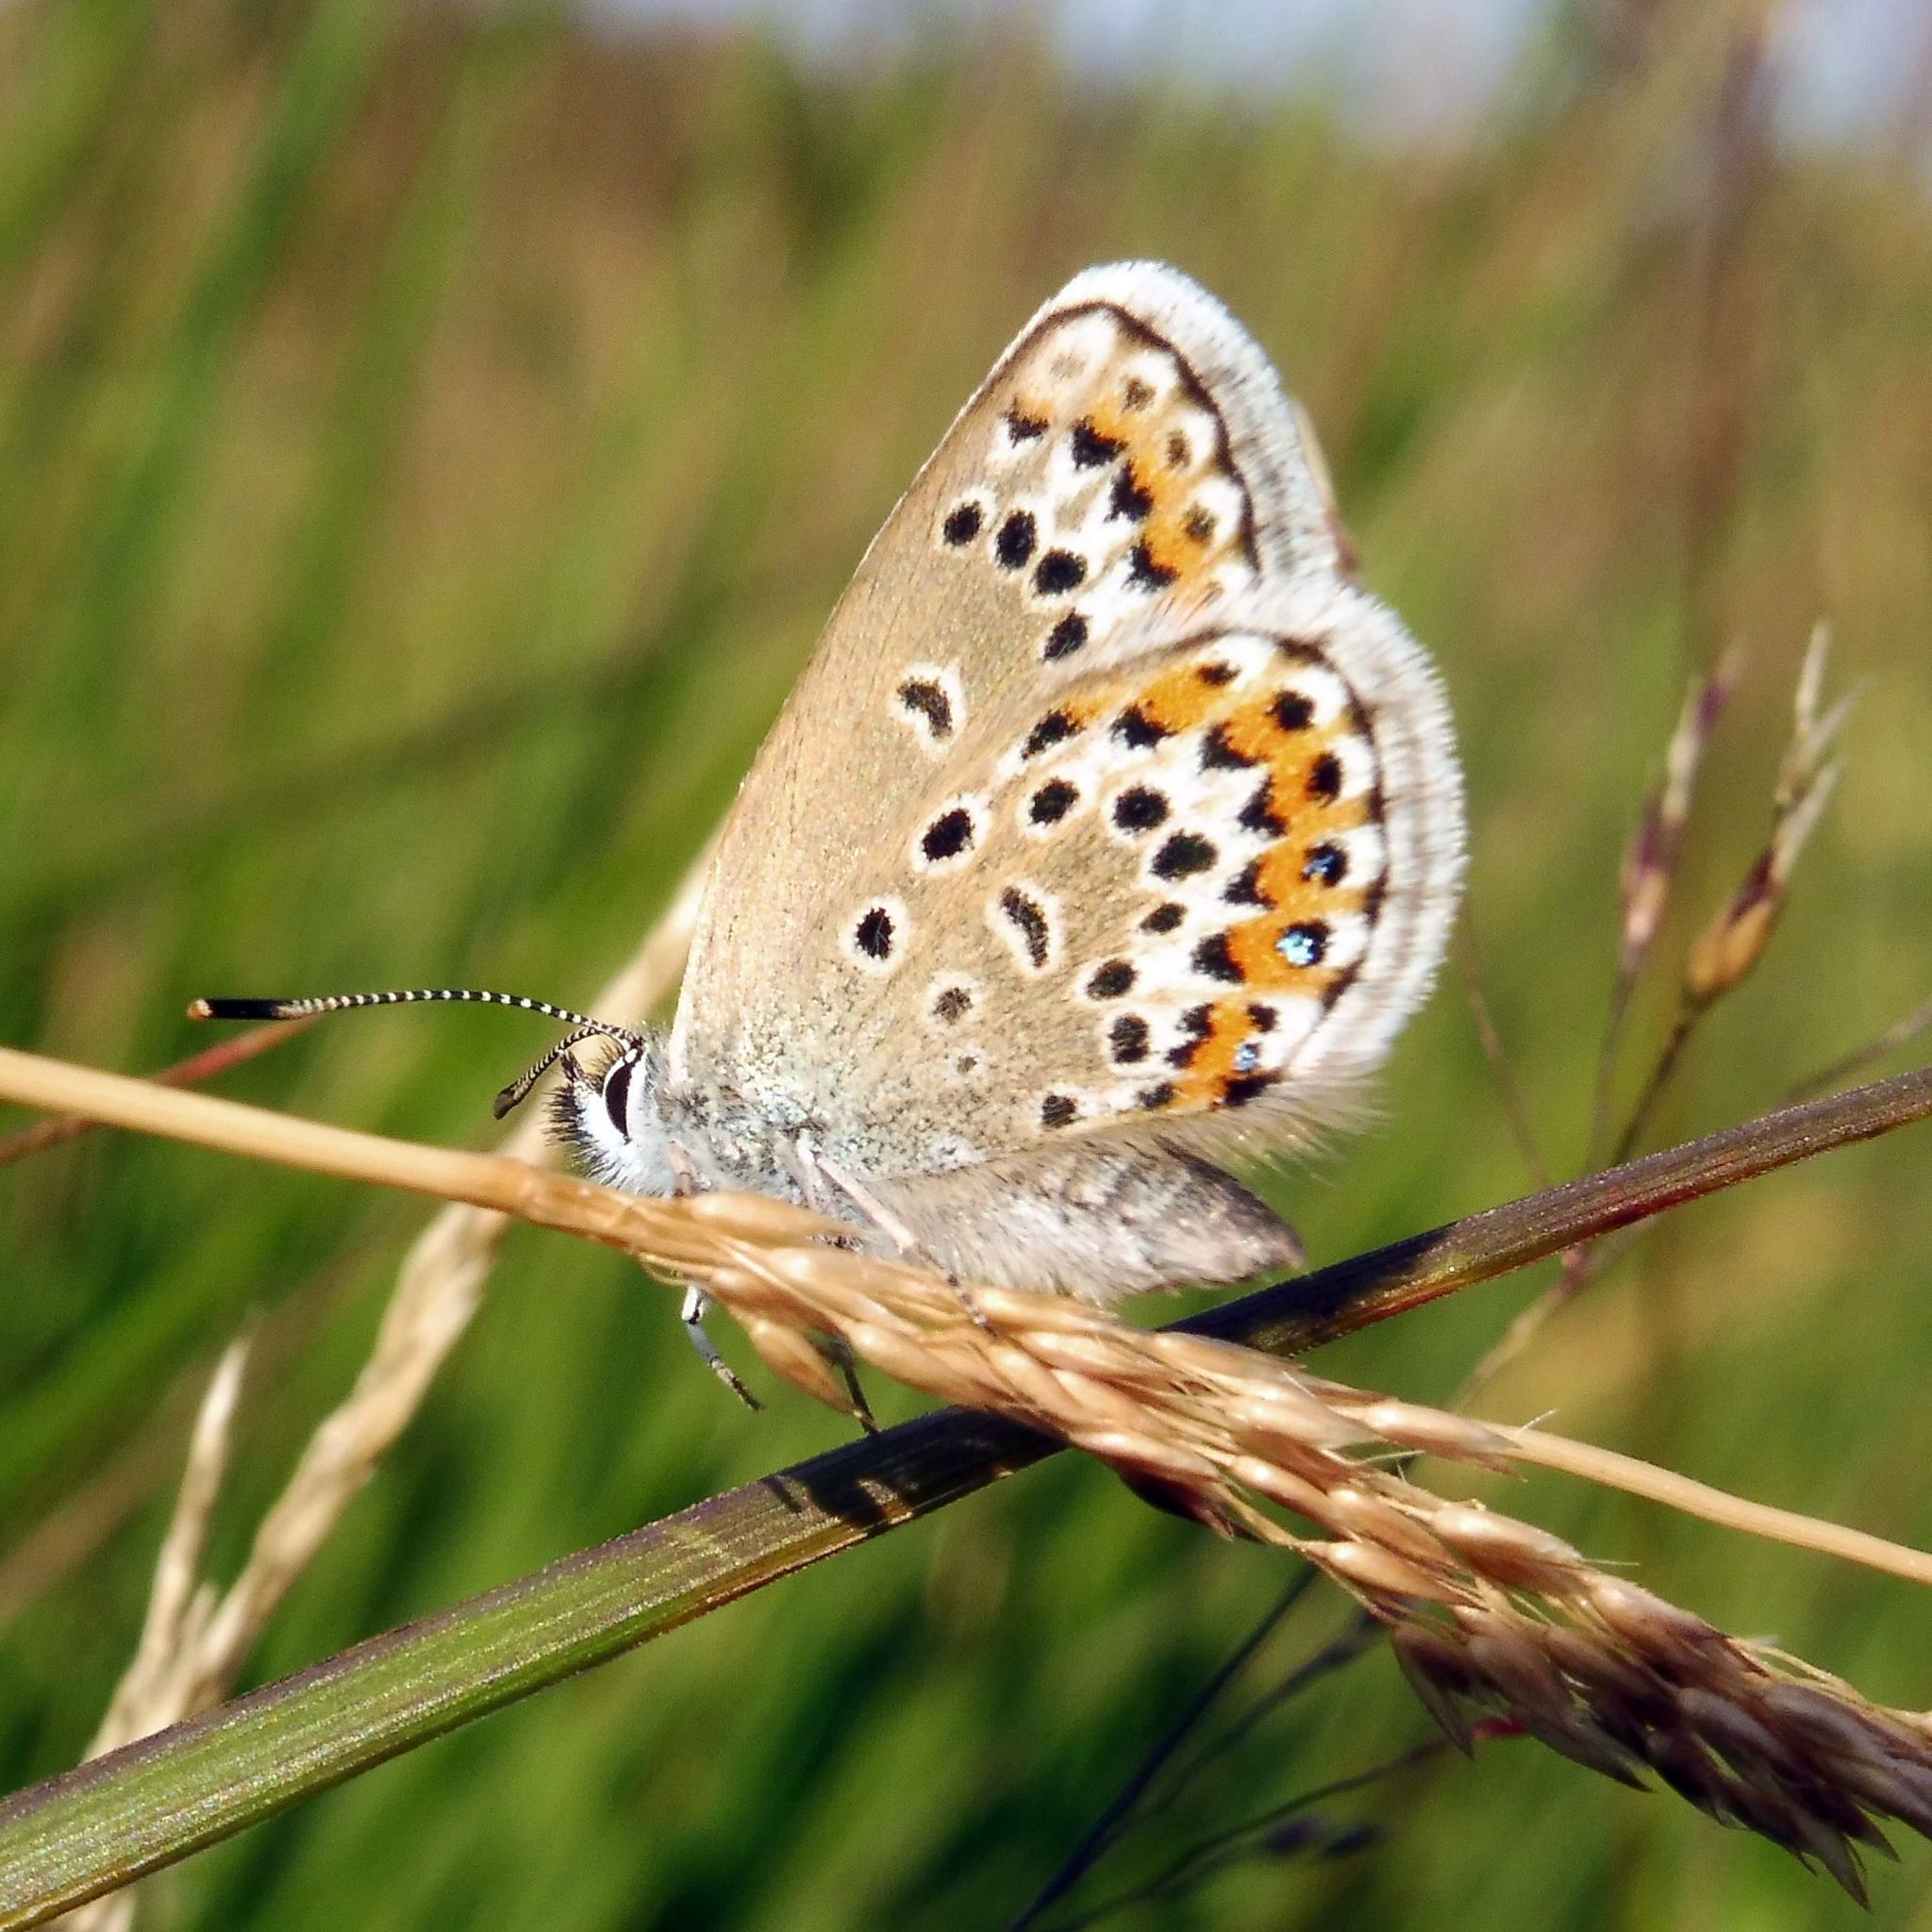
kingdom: Animalia
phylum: Arthropoda
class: Insecta
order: Lepidoptera
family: Lycaenidae
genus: Plebejus
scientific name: Plebejus argus
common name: Silver-studded blue
